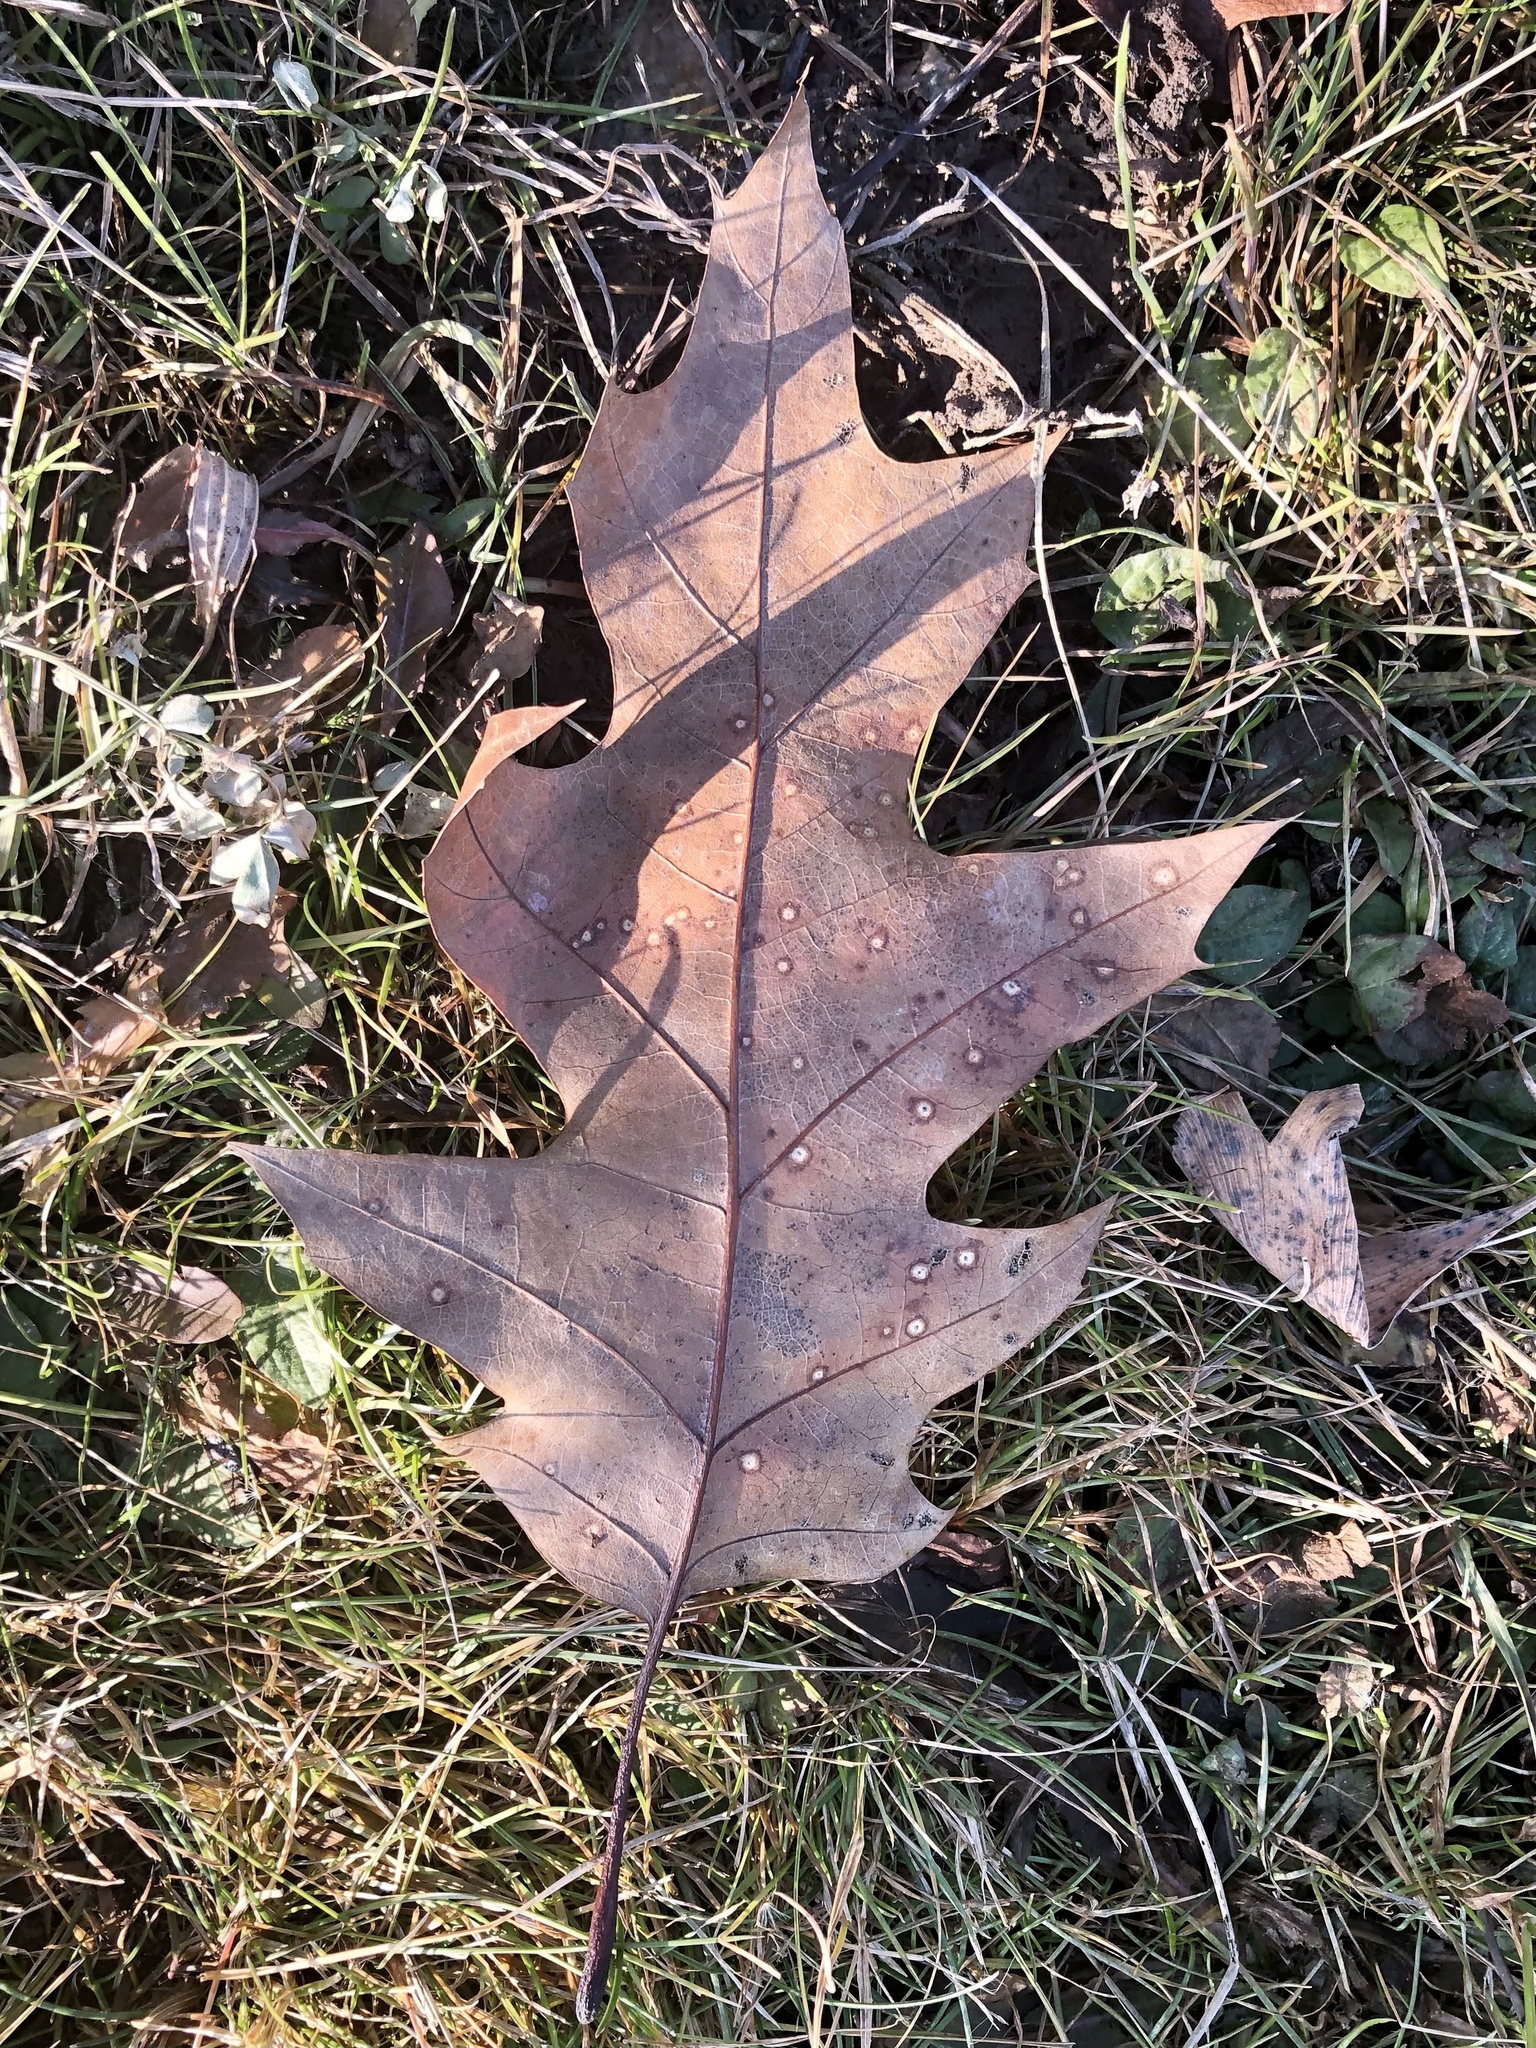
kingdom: Plantae
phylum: Tracheophyta
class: Magnoliopsida
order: Fagales
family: Fagaceae
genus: Quercus
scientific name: Quercus rubra
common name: Red oak
